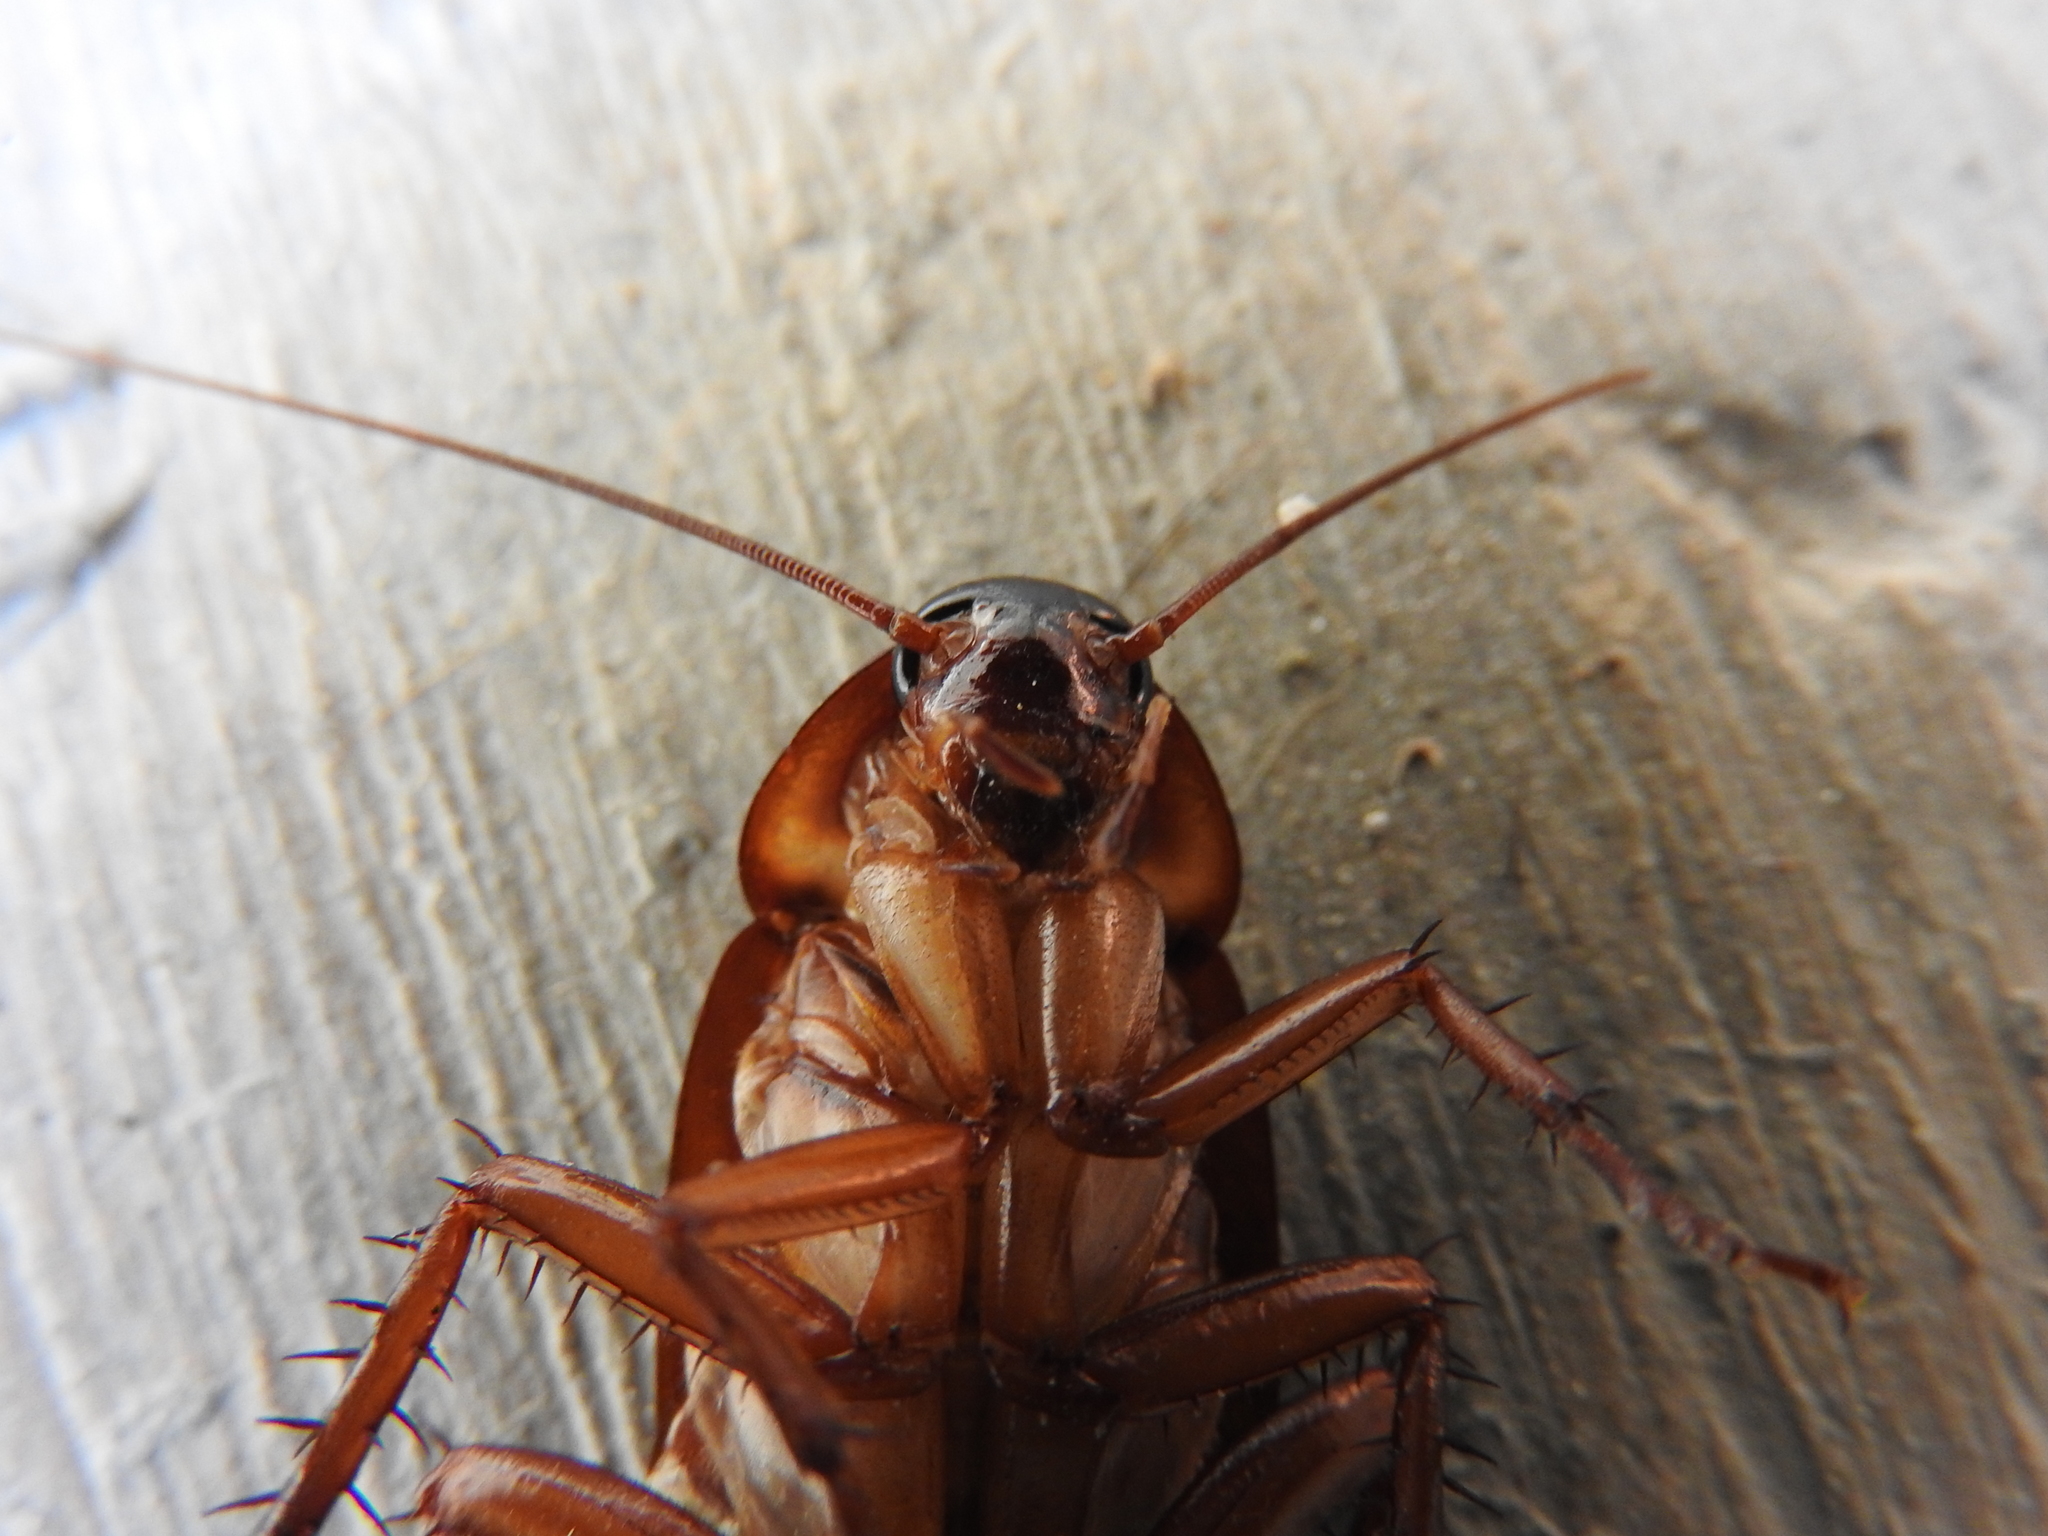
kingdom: Animalia
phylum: Arthropoda
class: Insecta
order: Blattodea
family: Blattidae
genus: Periplaneta
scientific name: Periplaneta americana
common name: American cockroach
